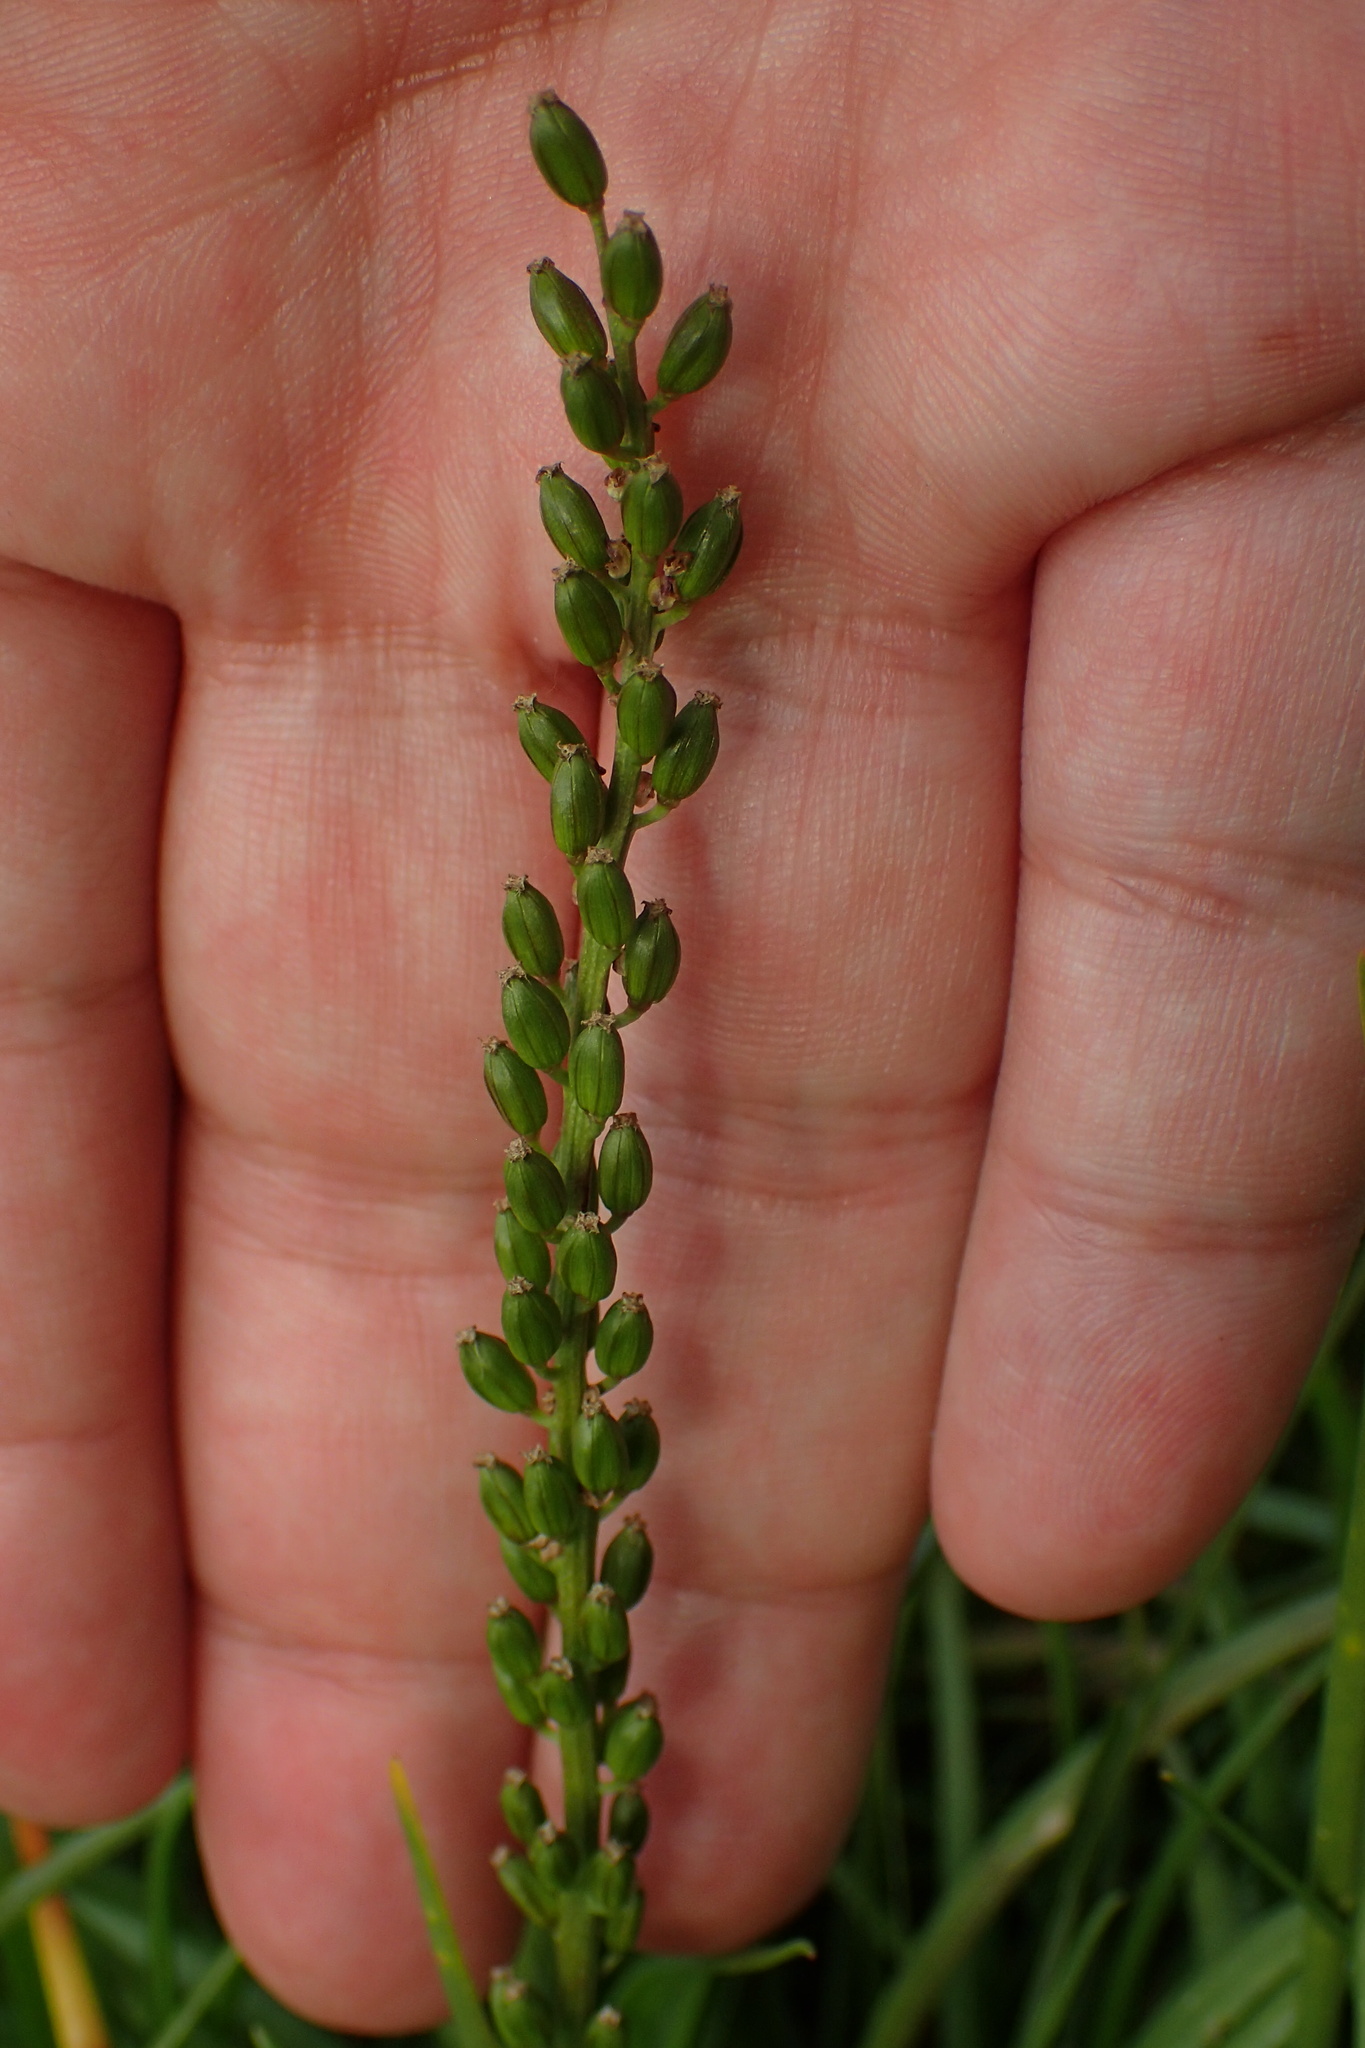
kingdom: Plantae
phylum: Tracheophyta
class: Liliopsida
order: Alismatales
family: Juncaginaceae
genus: Triglochin
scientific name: Triglochin maritima
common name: Sea arrowgrass
